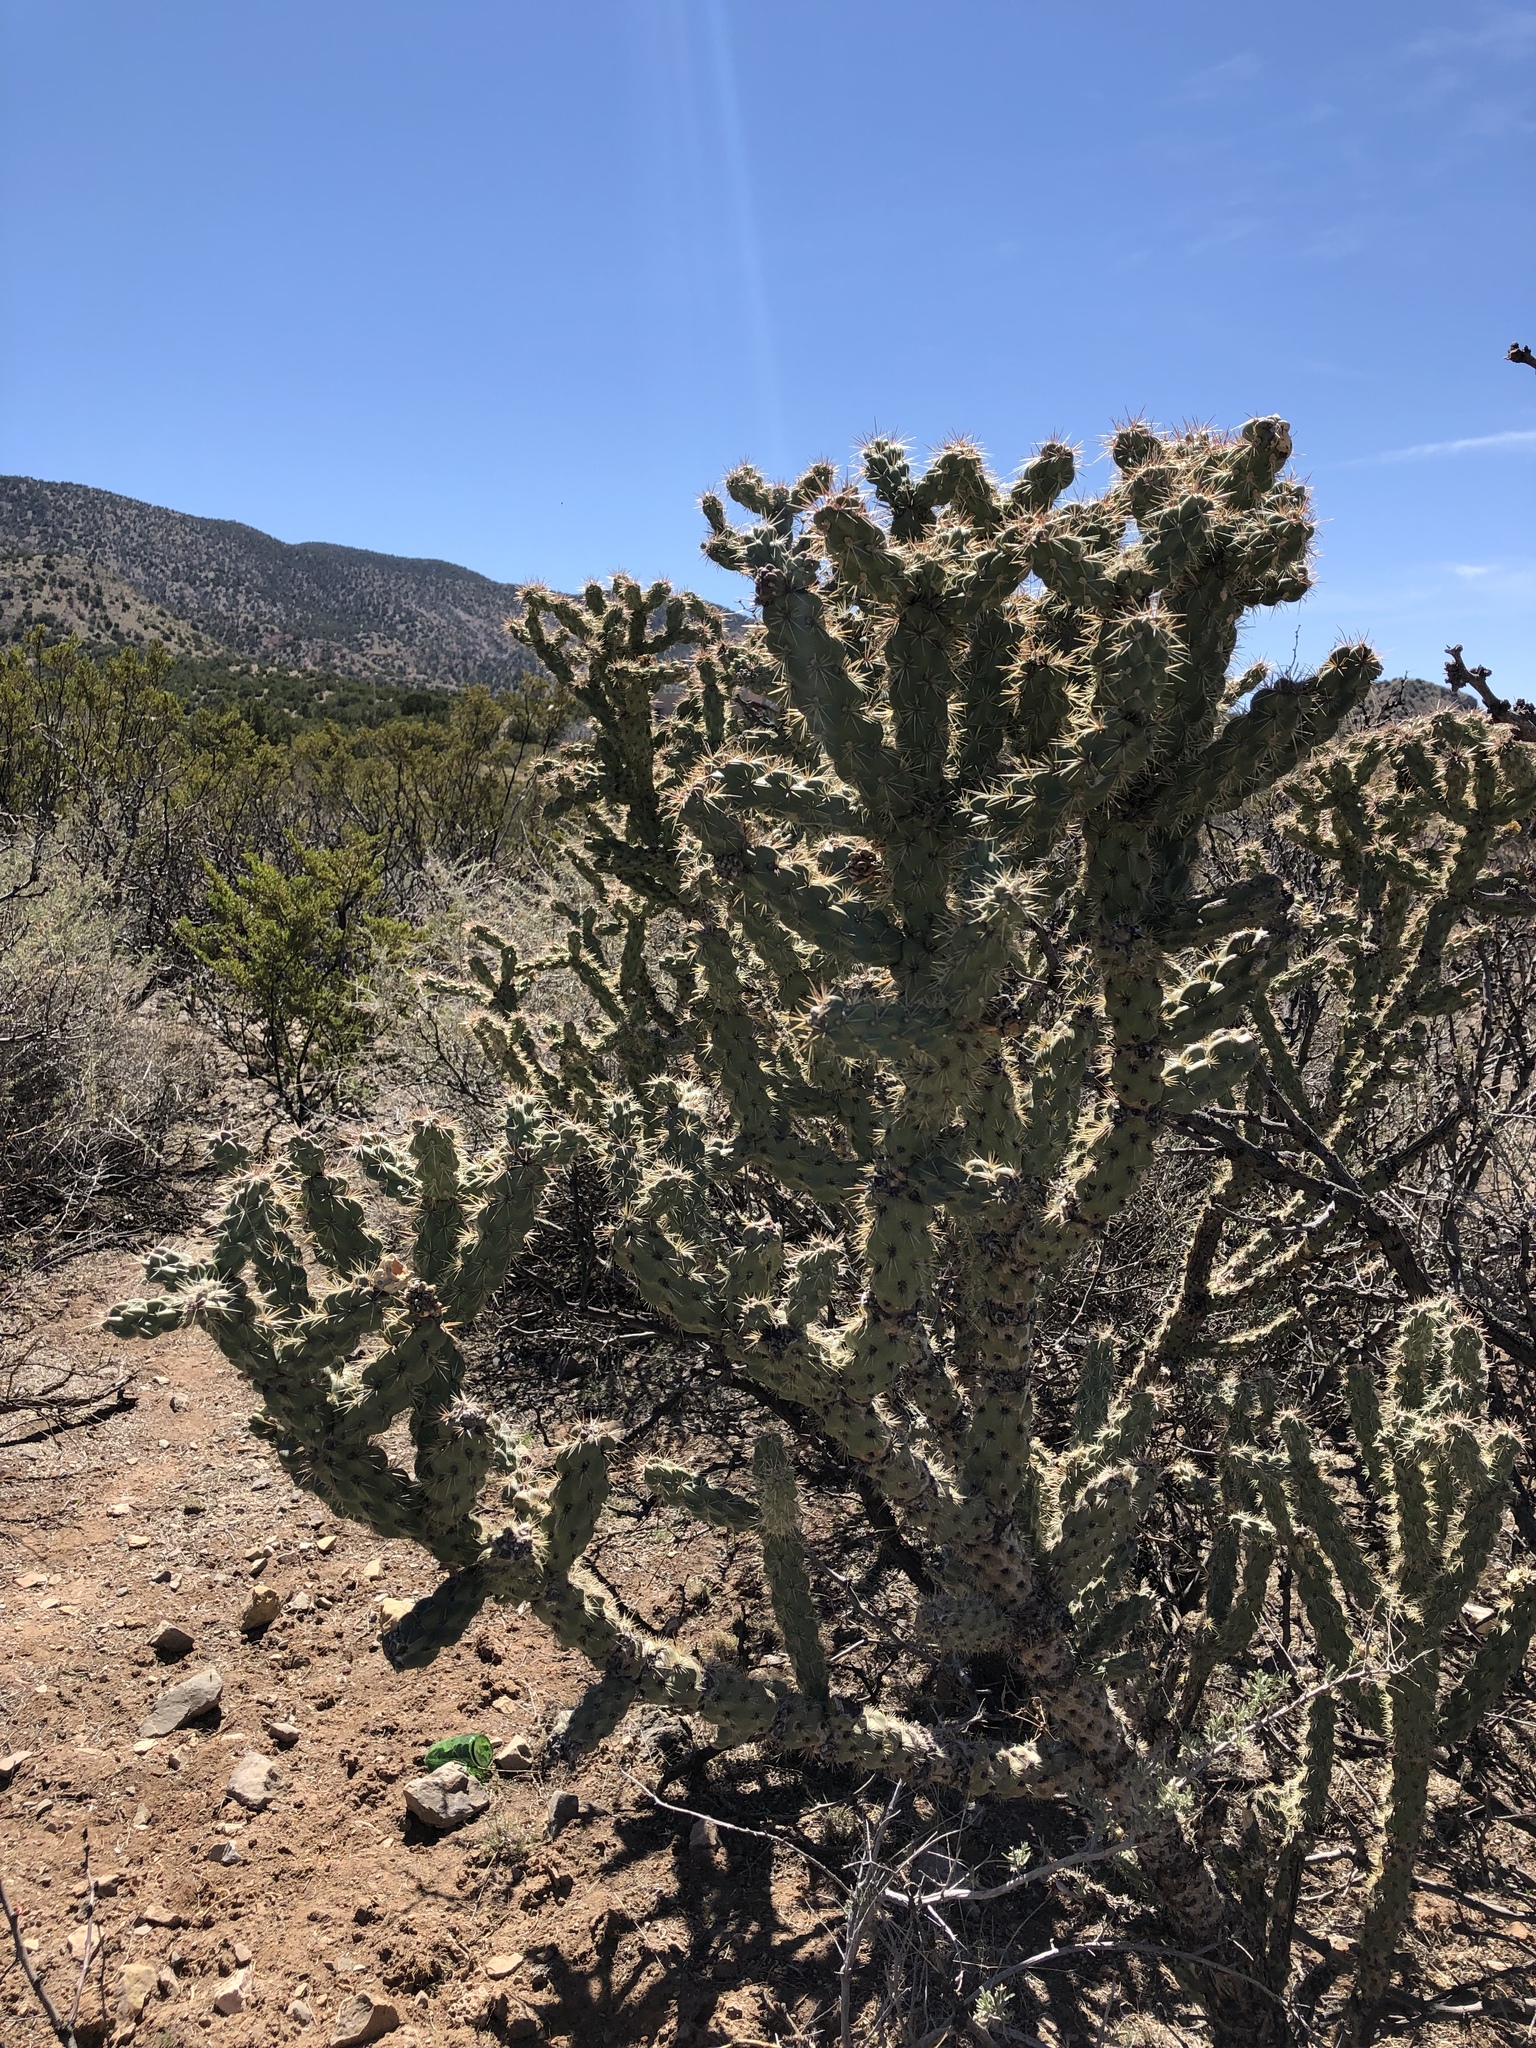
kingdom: Plantae
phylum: Tracheophyta
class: Magnoliopsida
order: Caryophyllales
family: Cactaceae
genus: Cylindropuntia
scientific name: Cylindropuntia imbricata
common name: Candelabrum cactus
